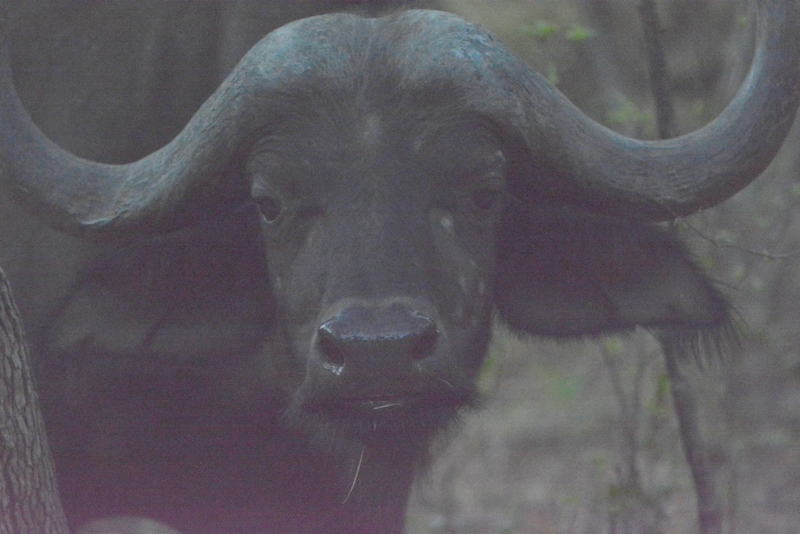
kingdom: Animalia
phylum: Chordata
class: Mammalia
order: Artiodactyla
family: Bovidae
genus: Syncerus
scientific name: Syncerus caffer
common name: African buffalo
